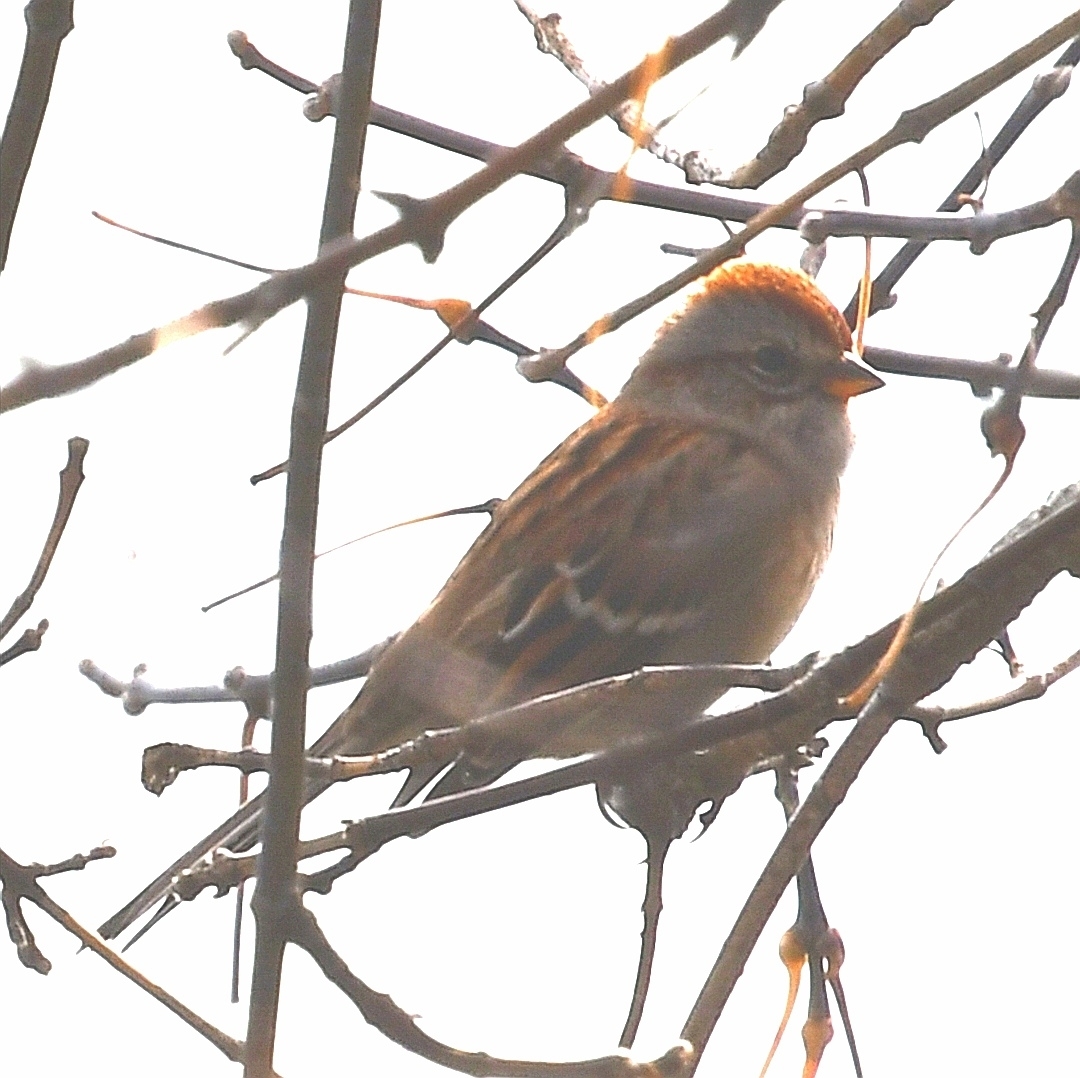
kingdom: Animalia
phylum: Chordata
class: Aves
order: Passeriformes
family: Passerellidae
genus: Spizelloides
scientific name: Spizelloides arborea
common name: American tree sparrow
